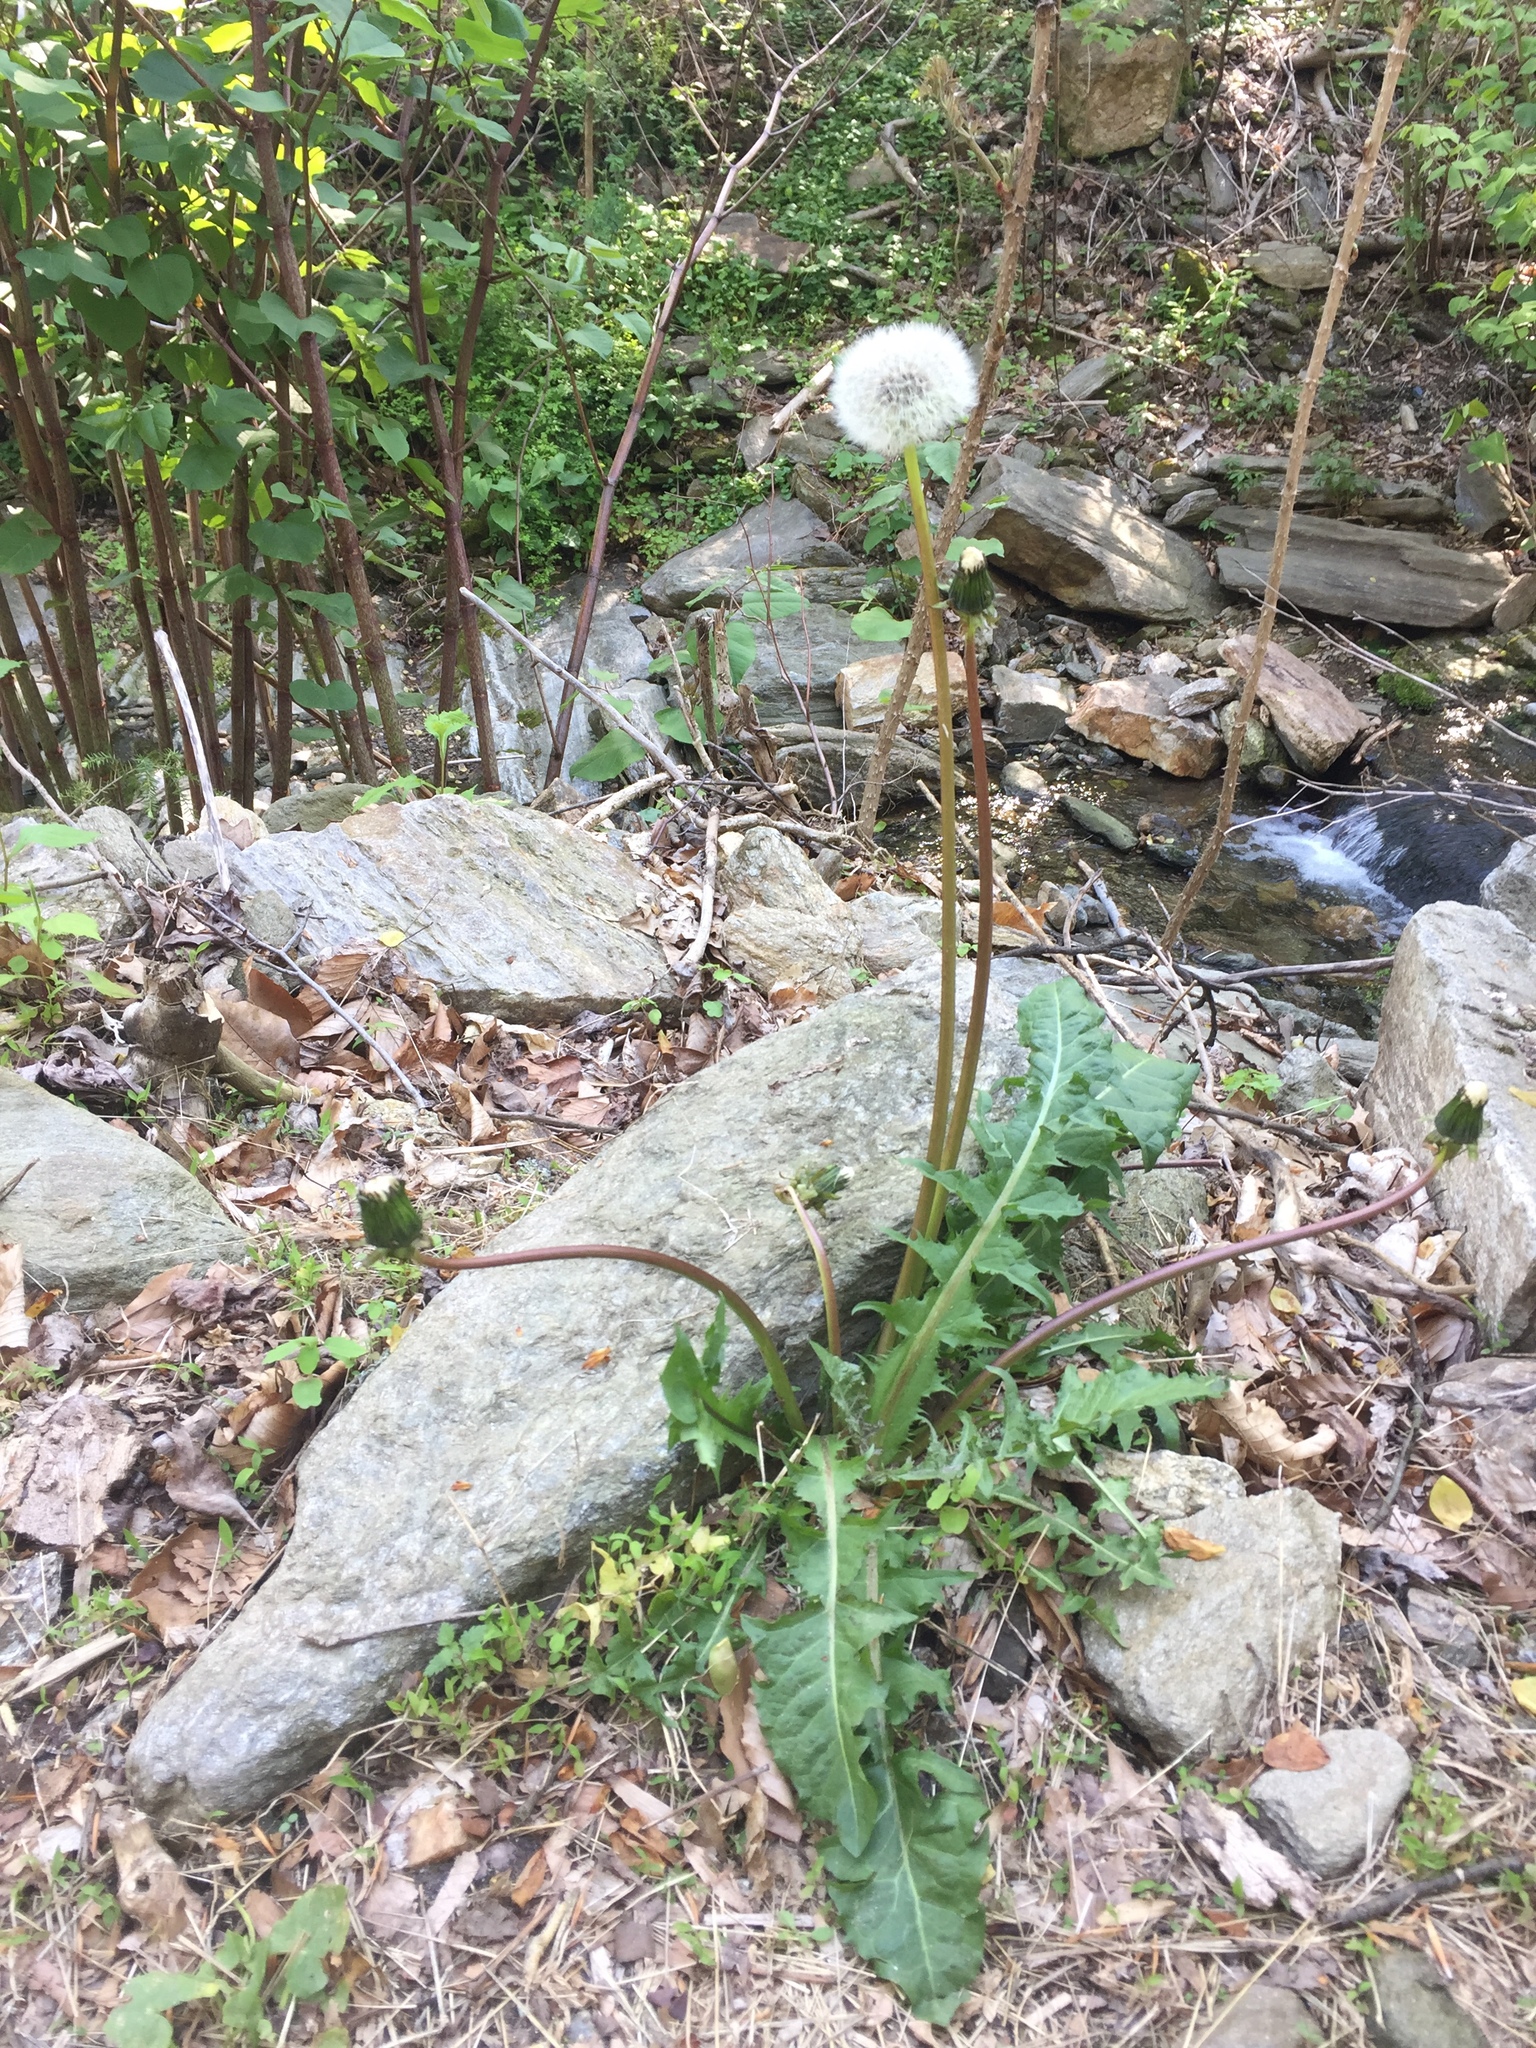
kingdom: Plantae
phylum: Tracheophyta
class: Magnoliopsida
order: Asterales
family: Asteraceae
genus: Taraxacum
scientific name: Taraxacum officinale
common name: Common dandelion
